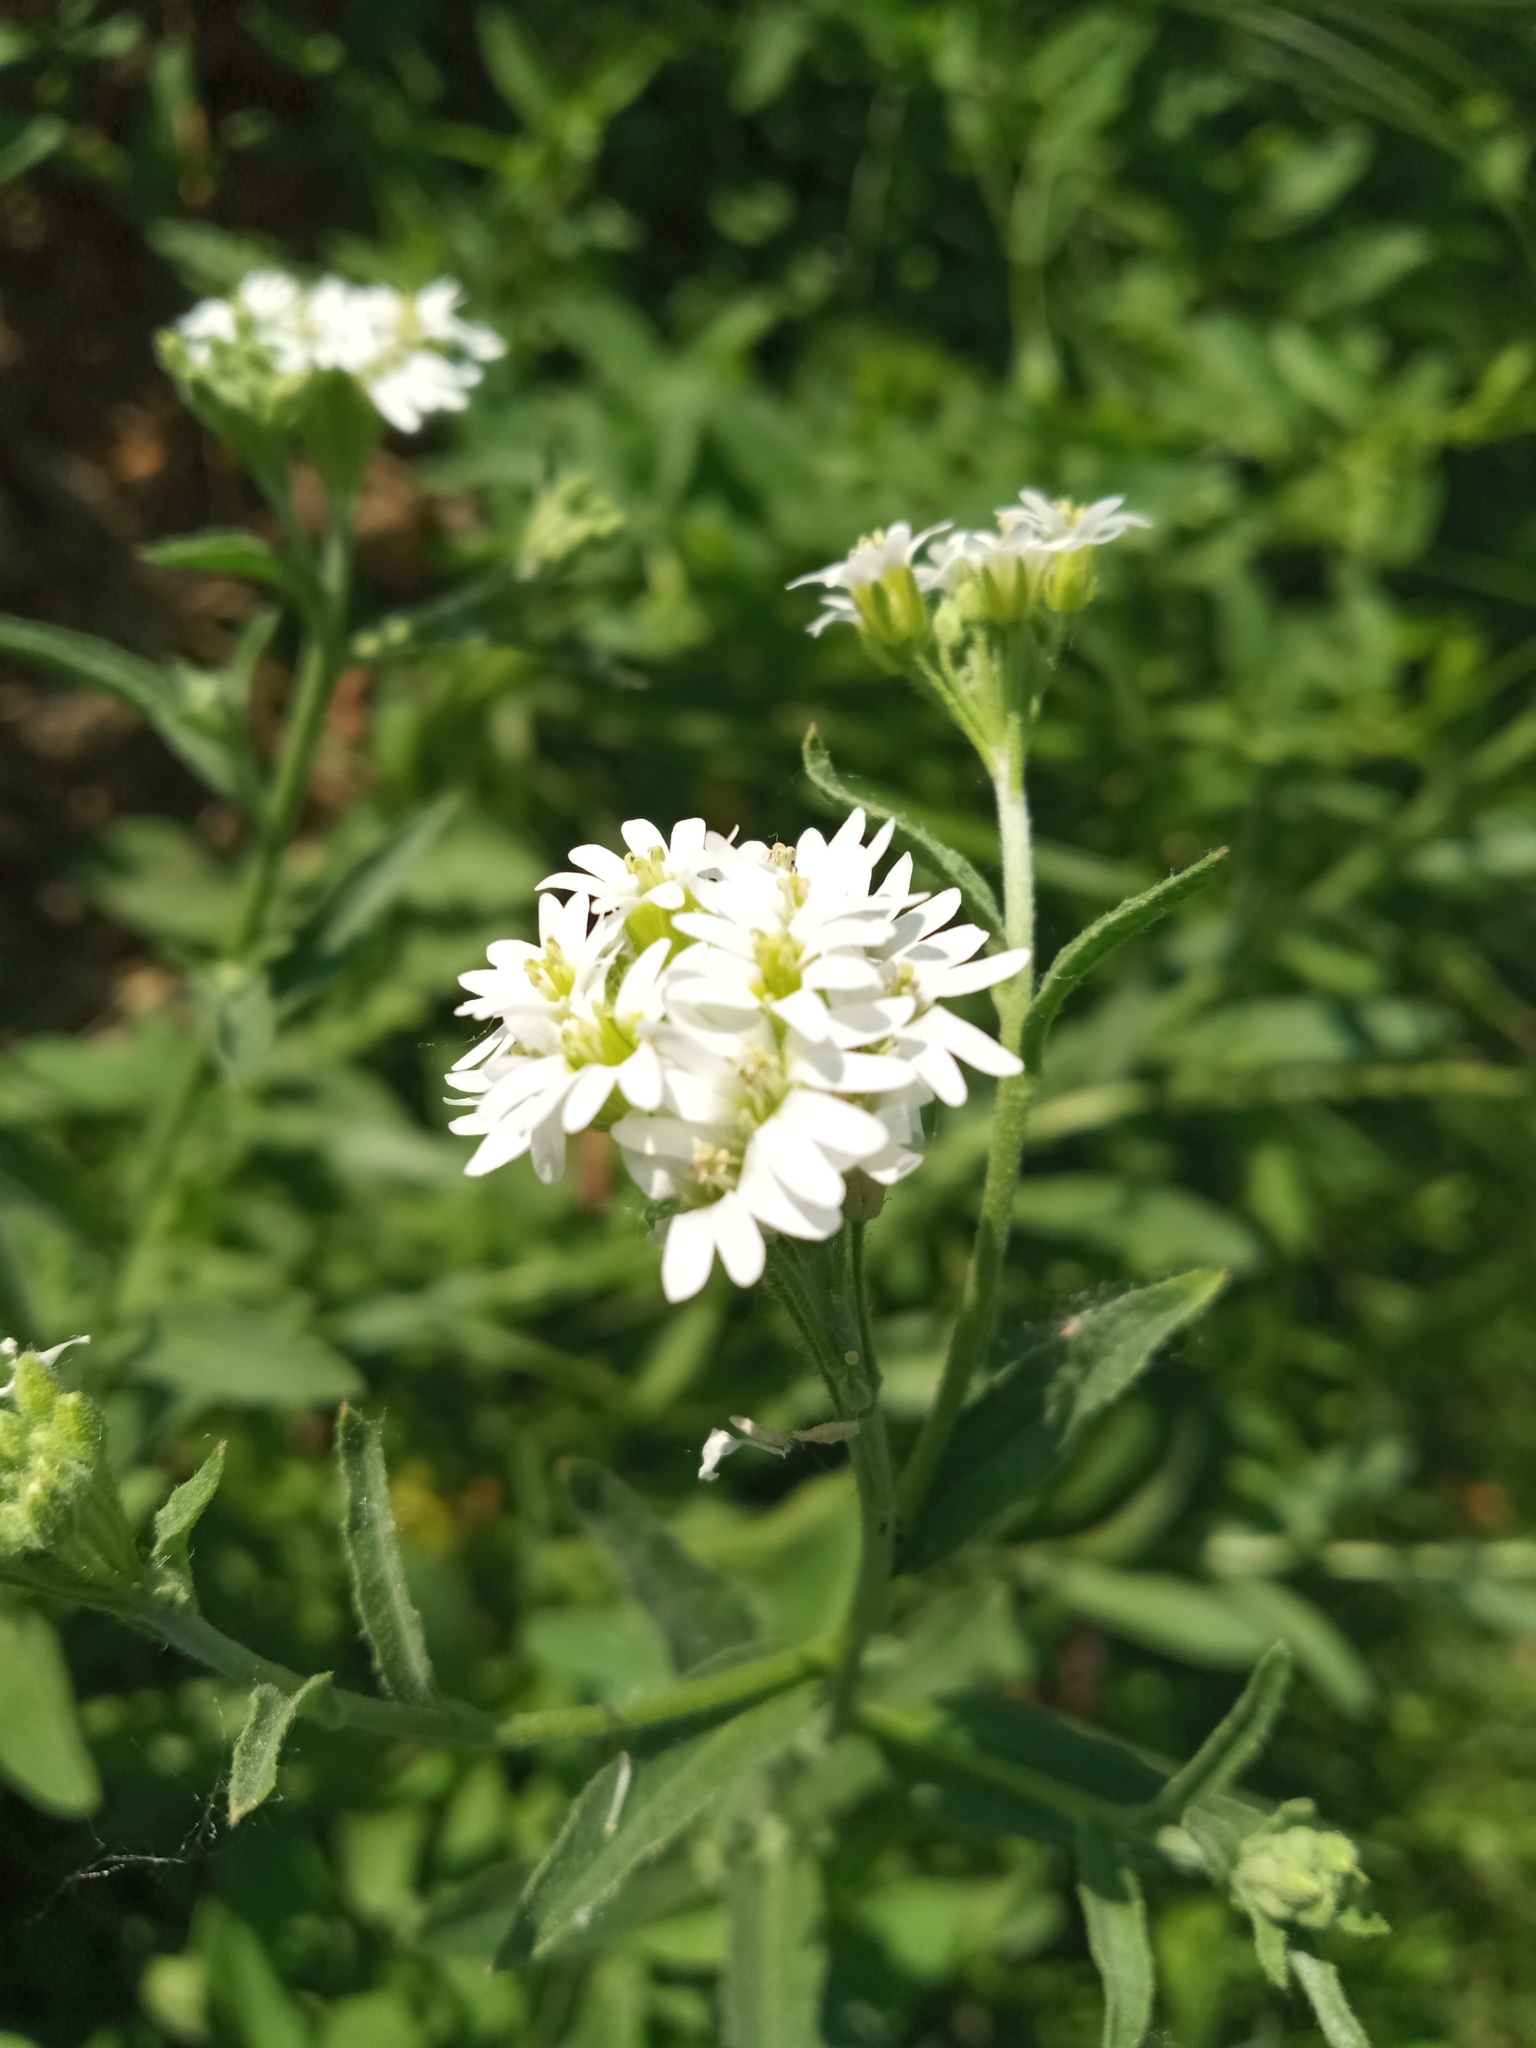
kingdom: Plantae
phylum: Tracheophyta
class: Magnoliopsida
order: Brassicales
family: Brassicaceae
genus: Berteroa
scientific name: Berteroa incana
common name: Hoary alison
